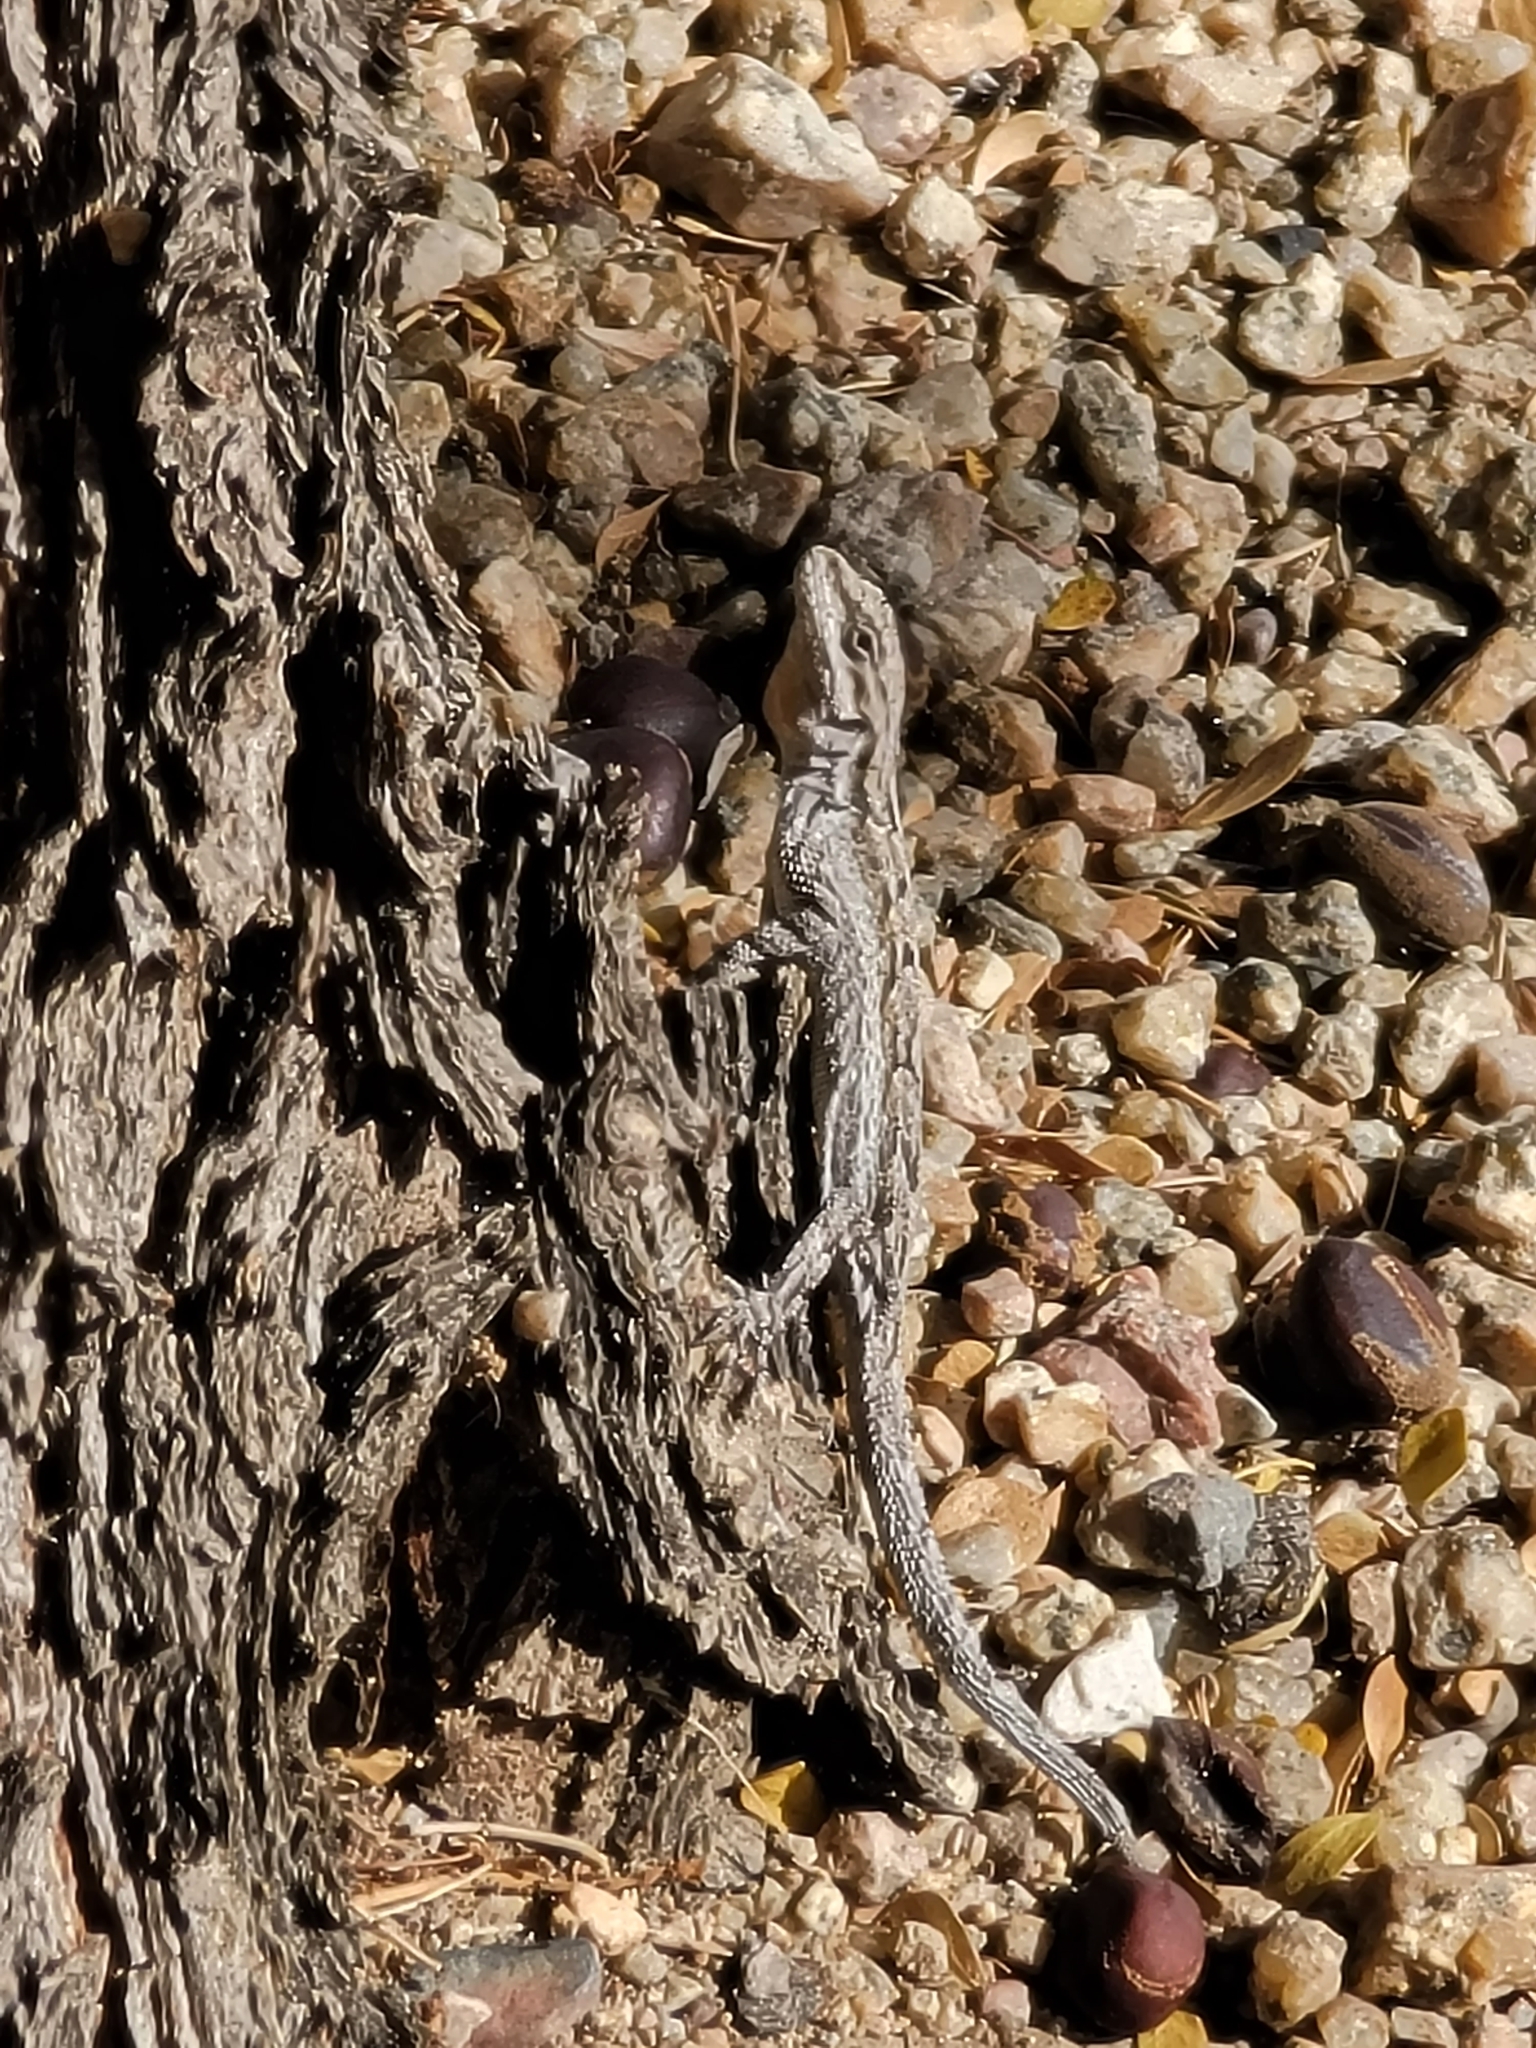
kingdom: Animalia
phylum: Chordata
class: Squamata
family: Phrynosomatidae
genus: Urosaurus
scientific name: Urosaurus ornatus
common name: Ornate tree lizard
